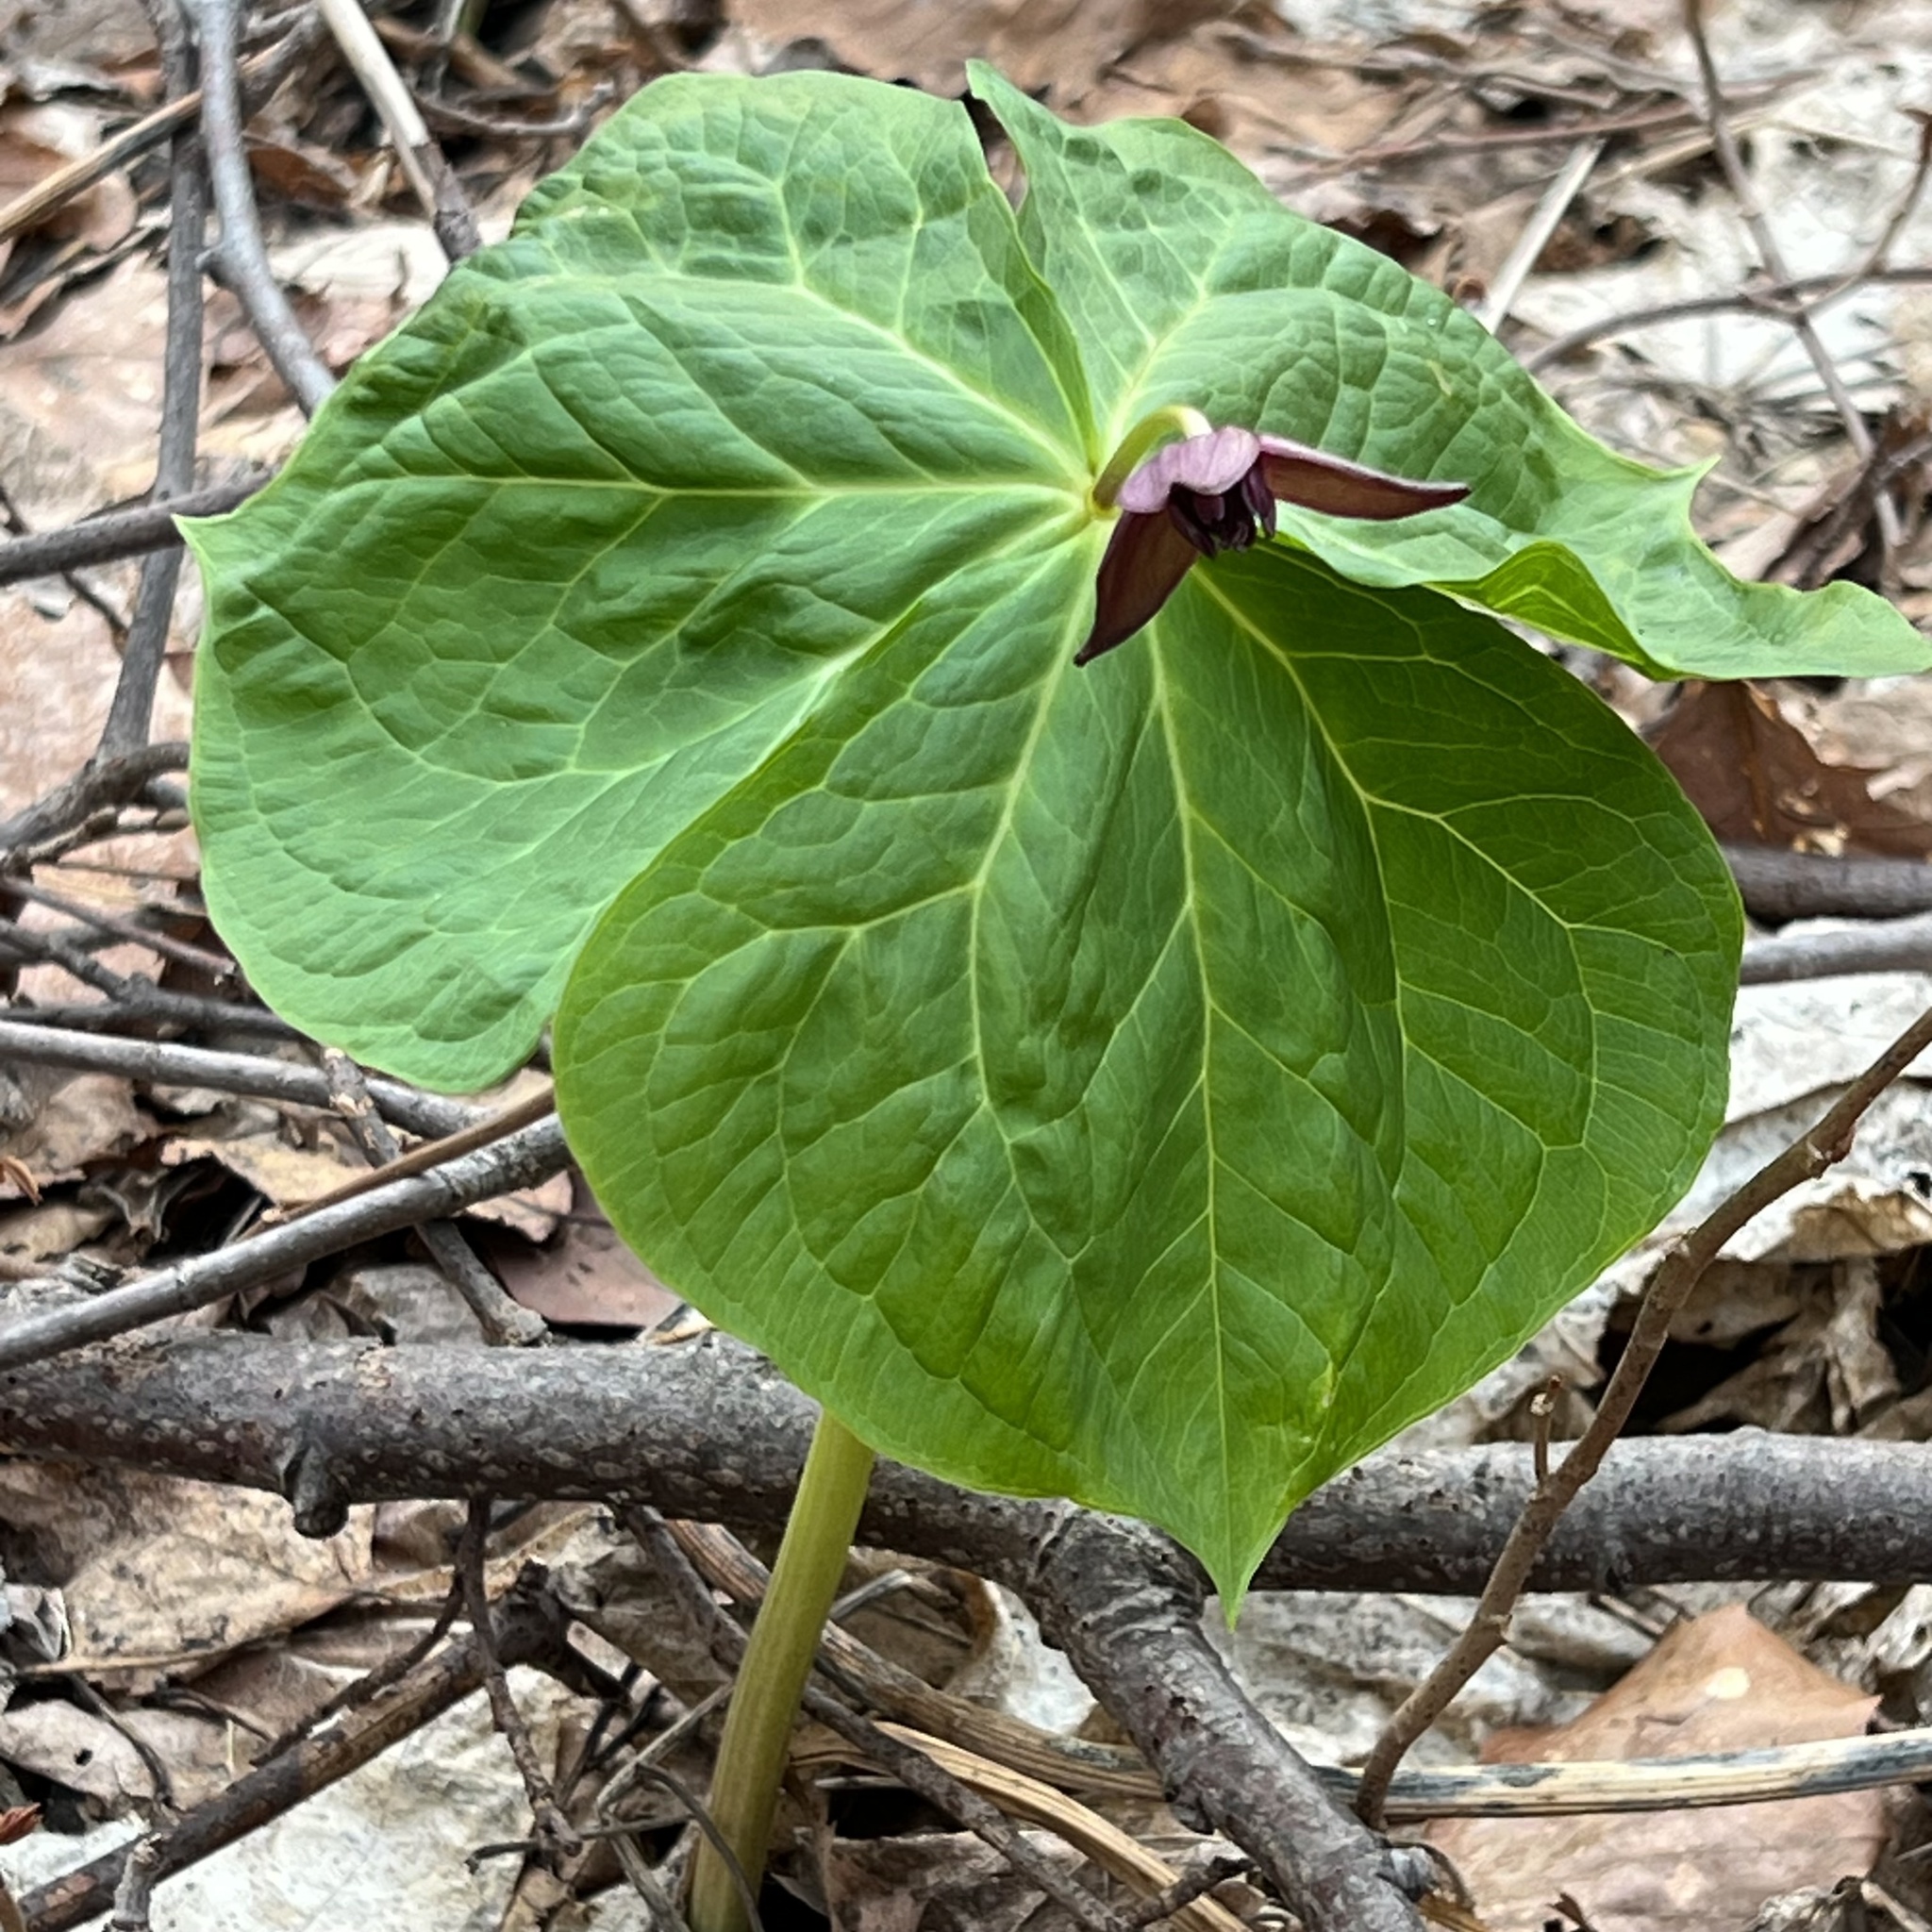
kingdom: Plantae
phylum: Tracheophyta
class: Liliopsida
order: Liliales
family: Melanthiaceae
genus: Trillium
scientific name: Trillium apetalon
